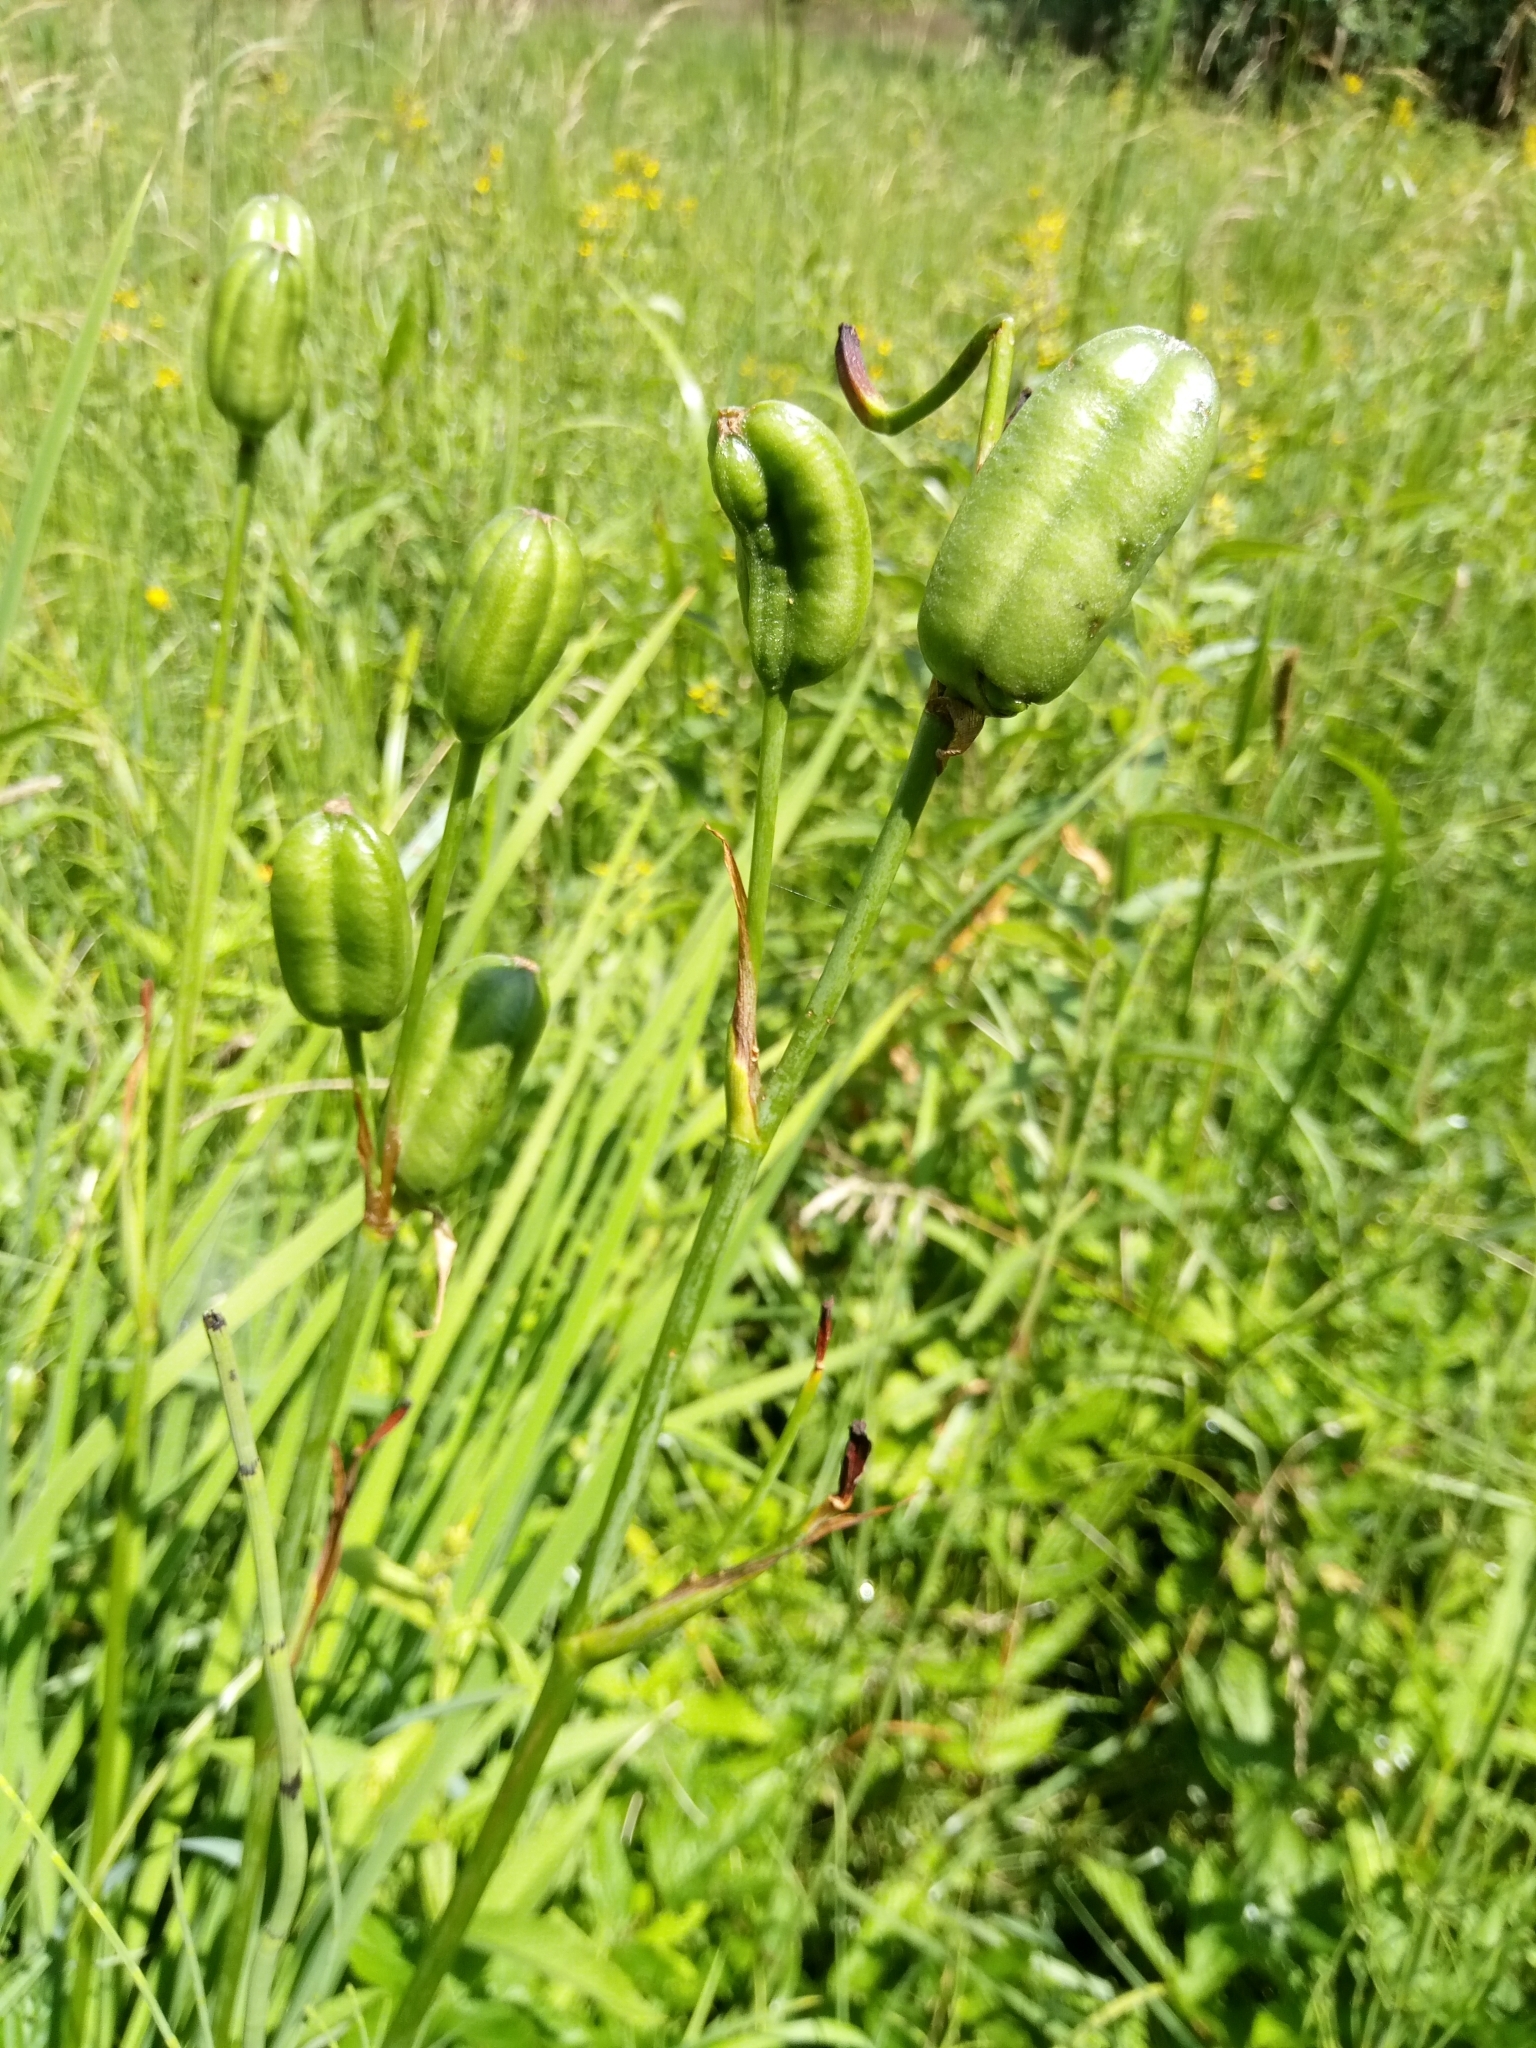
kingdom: Plantae
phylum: Tracheophyta
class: Liliopsida
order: Asparagales
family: Iridaceae
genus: Iris
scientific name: Iris sibirica
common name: Siberian iris
